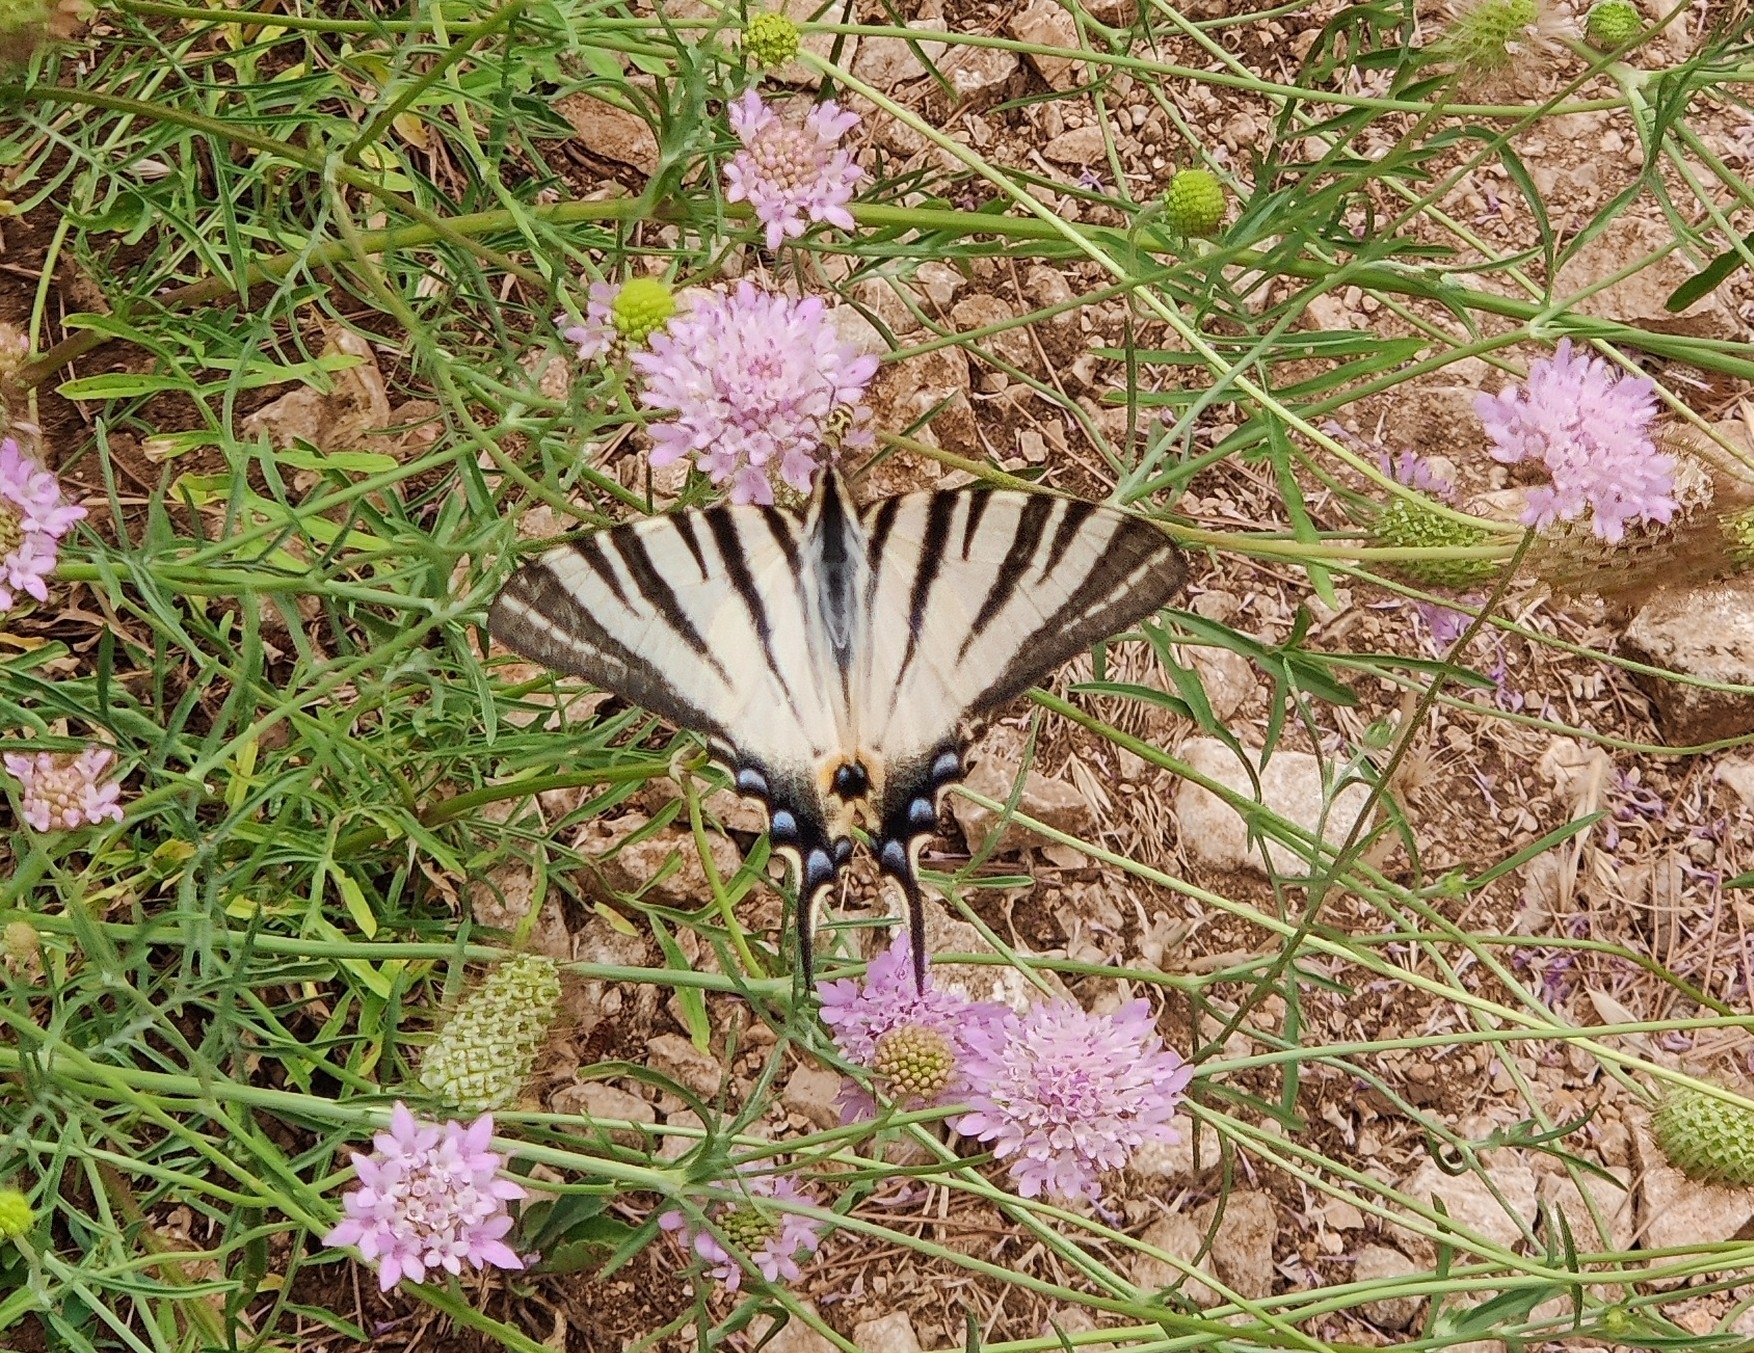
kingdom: Animalia
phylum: Arthropoda
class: Insecta
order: Lepidoptera
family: Papilionidae
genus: Iphiclides
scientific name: Iphiclides podalirius
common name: Scarce swallowtail
